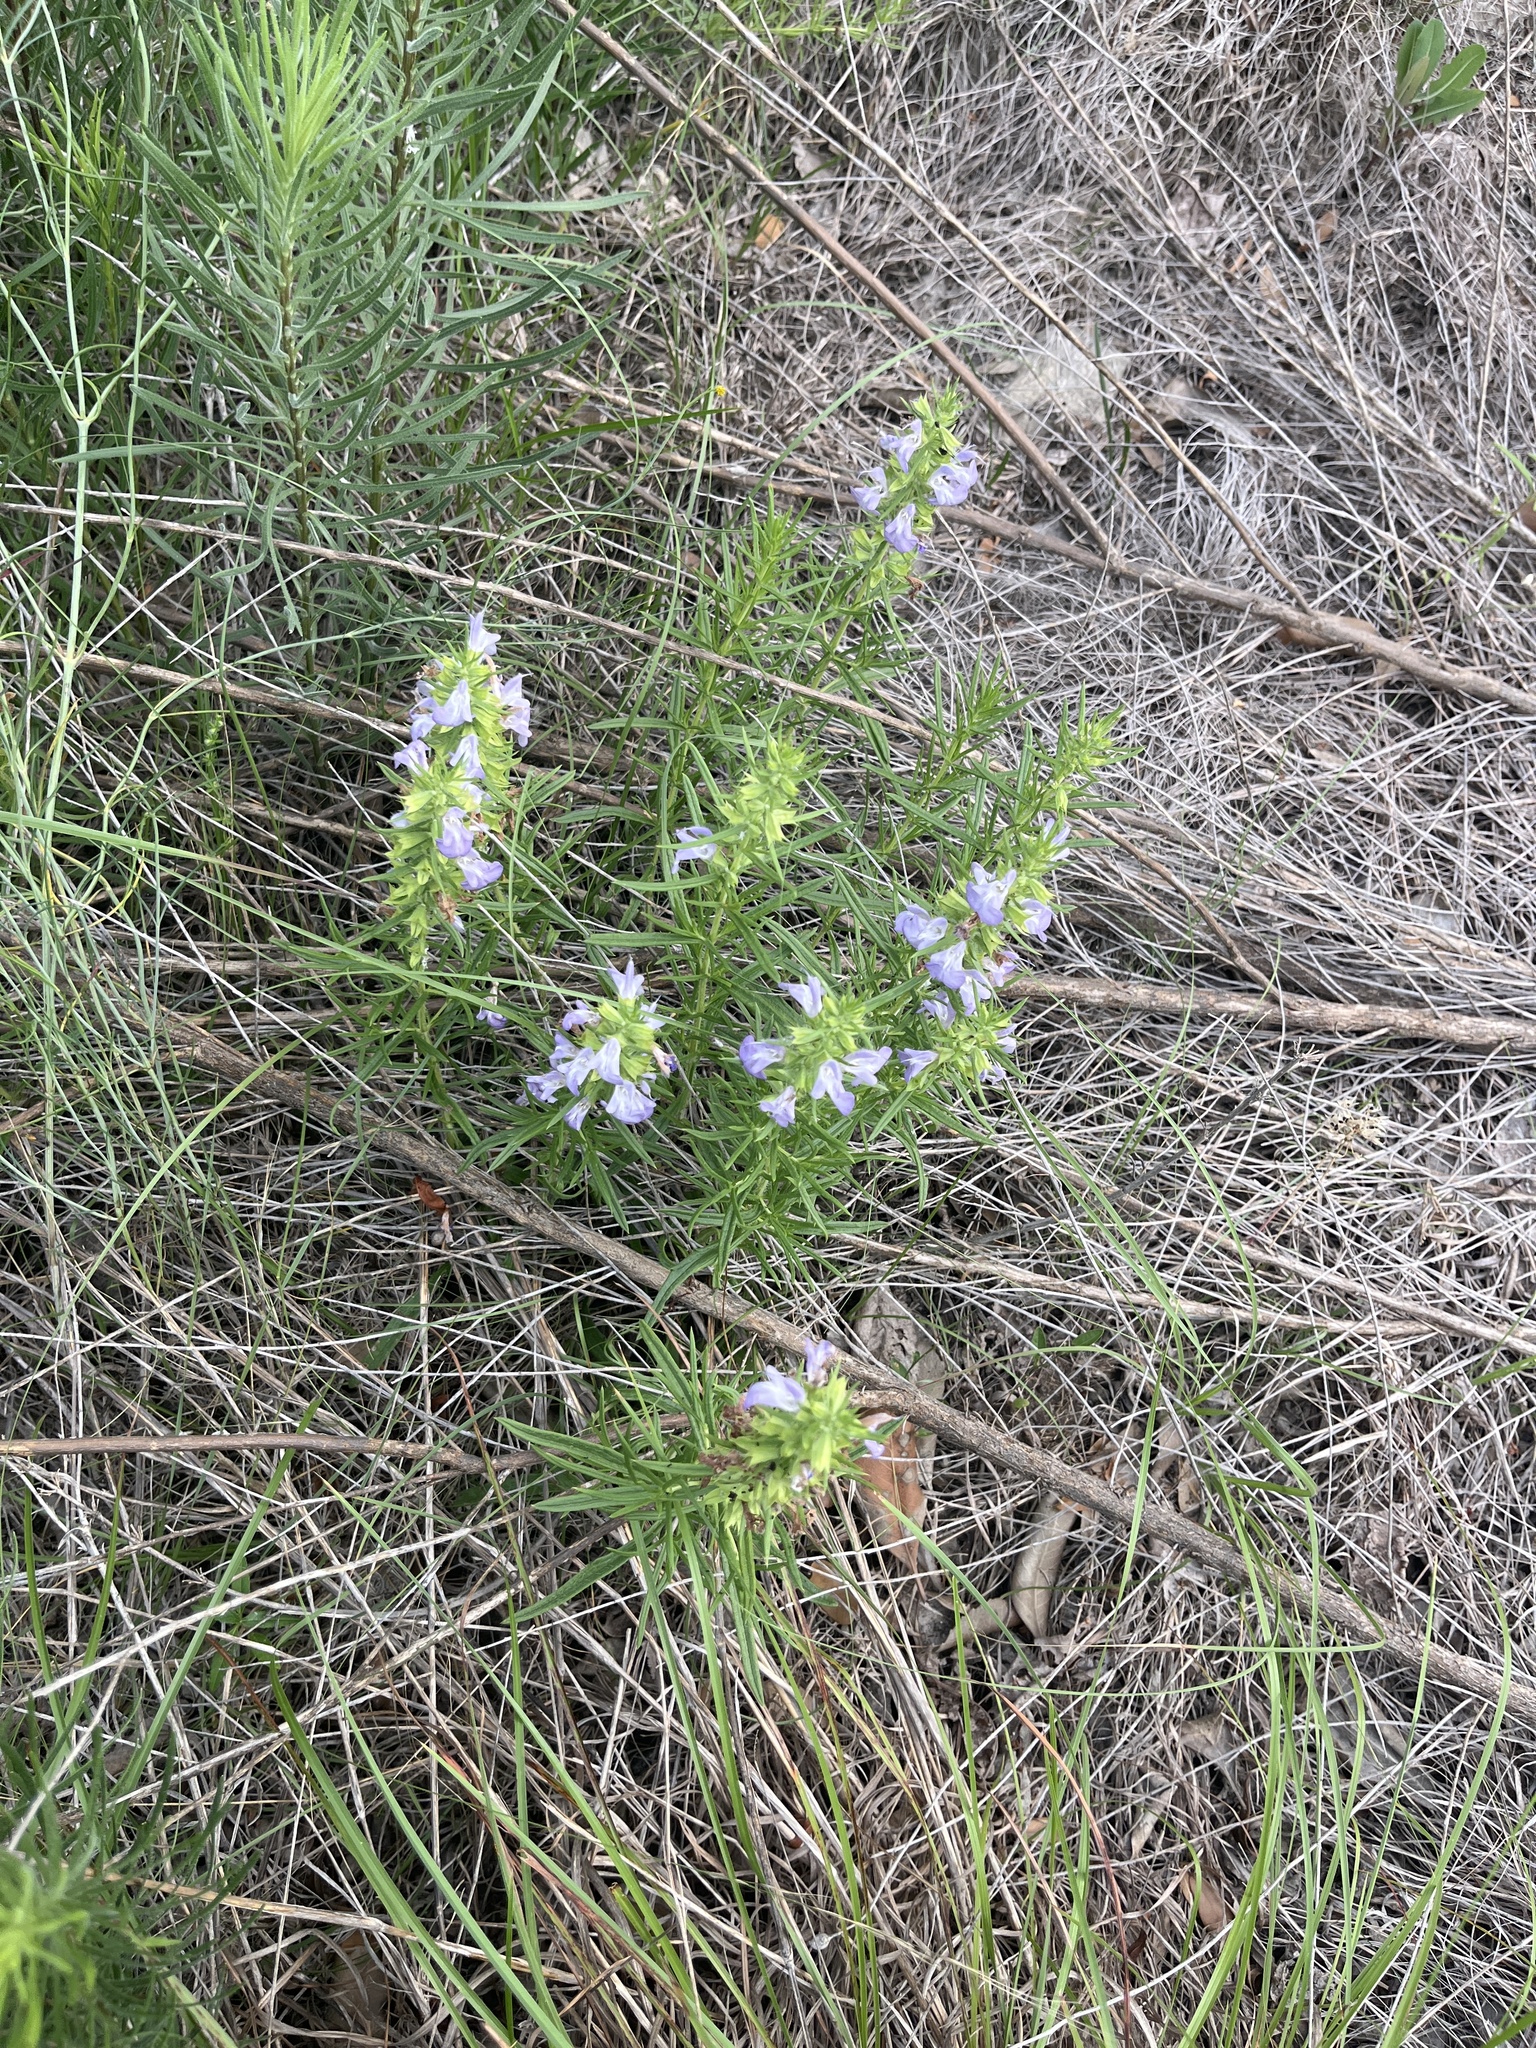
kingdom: Plantae
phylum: Tracheophyta
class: Magnoliopsida
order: Lamiales
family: Lamiaceae
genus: Salvia
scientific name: Salvia engelmannii
